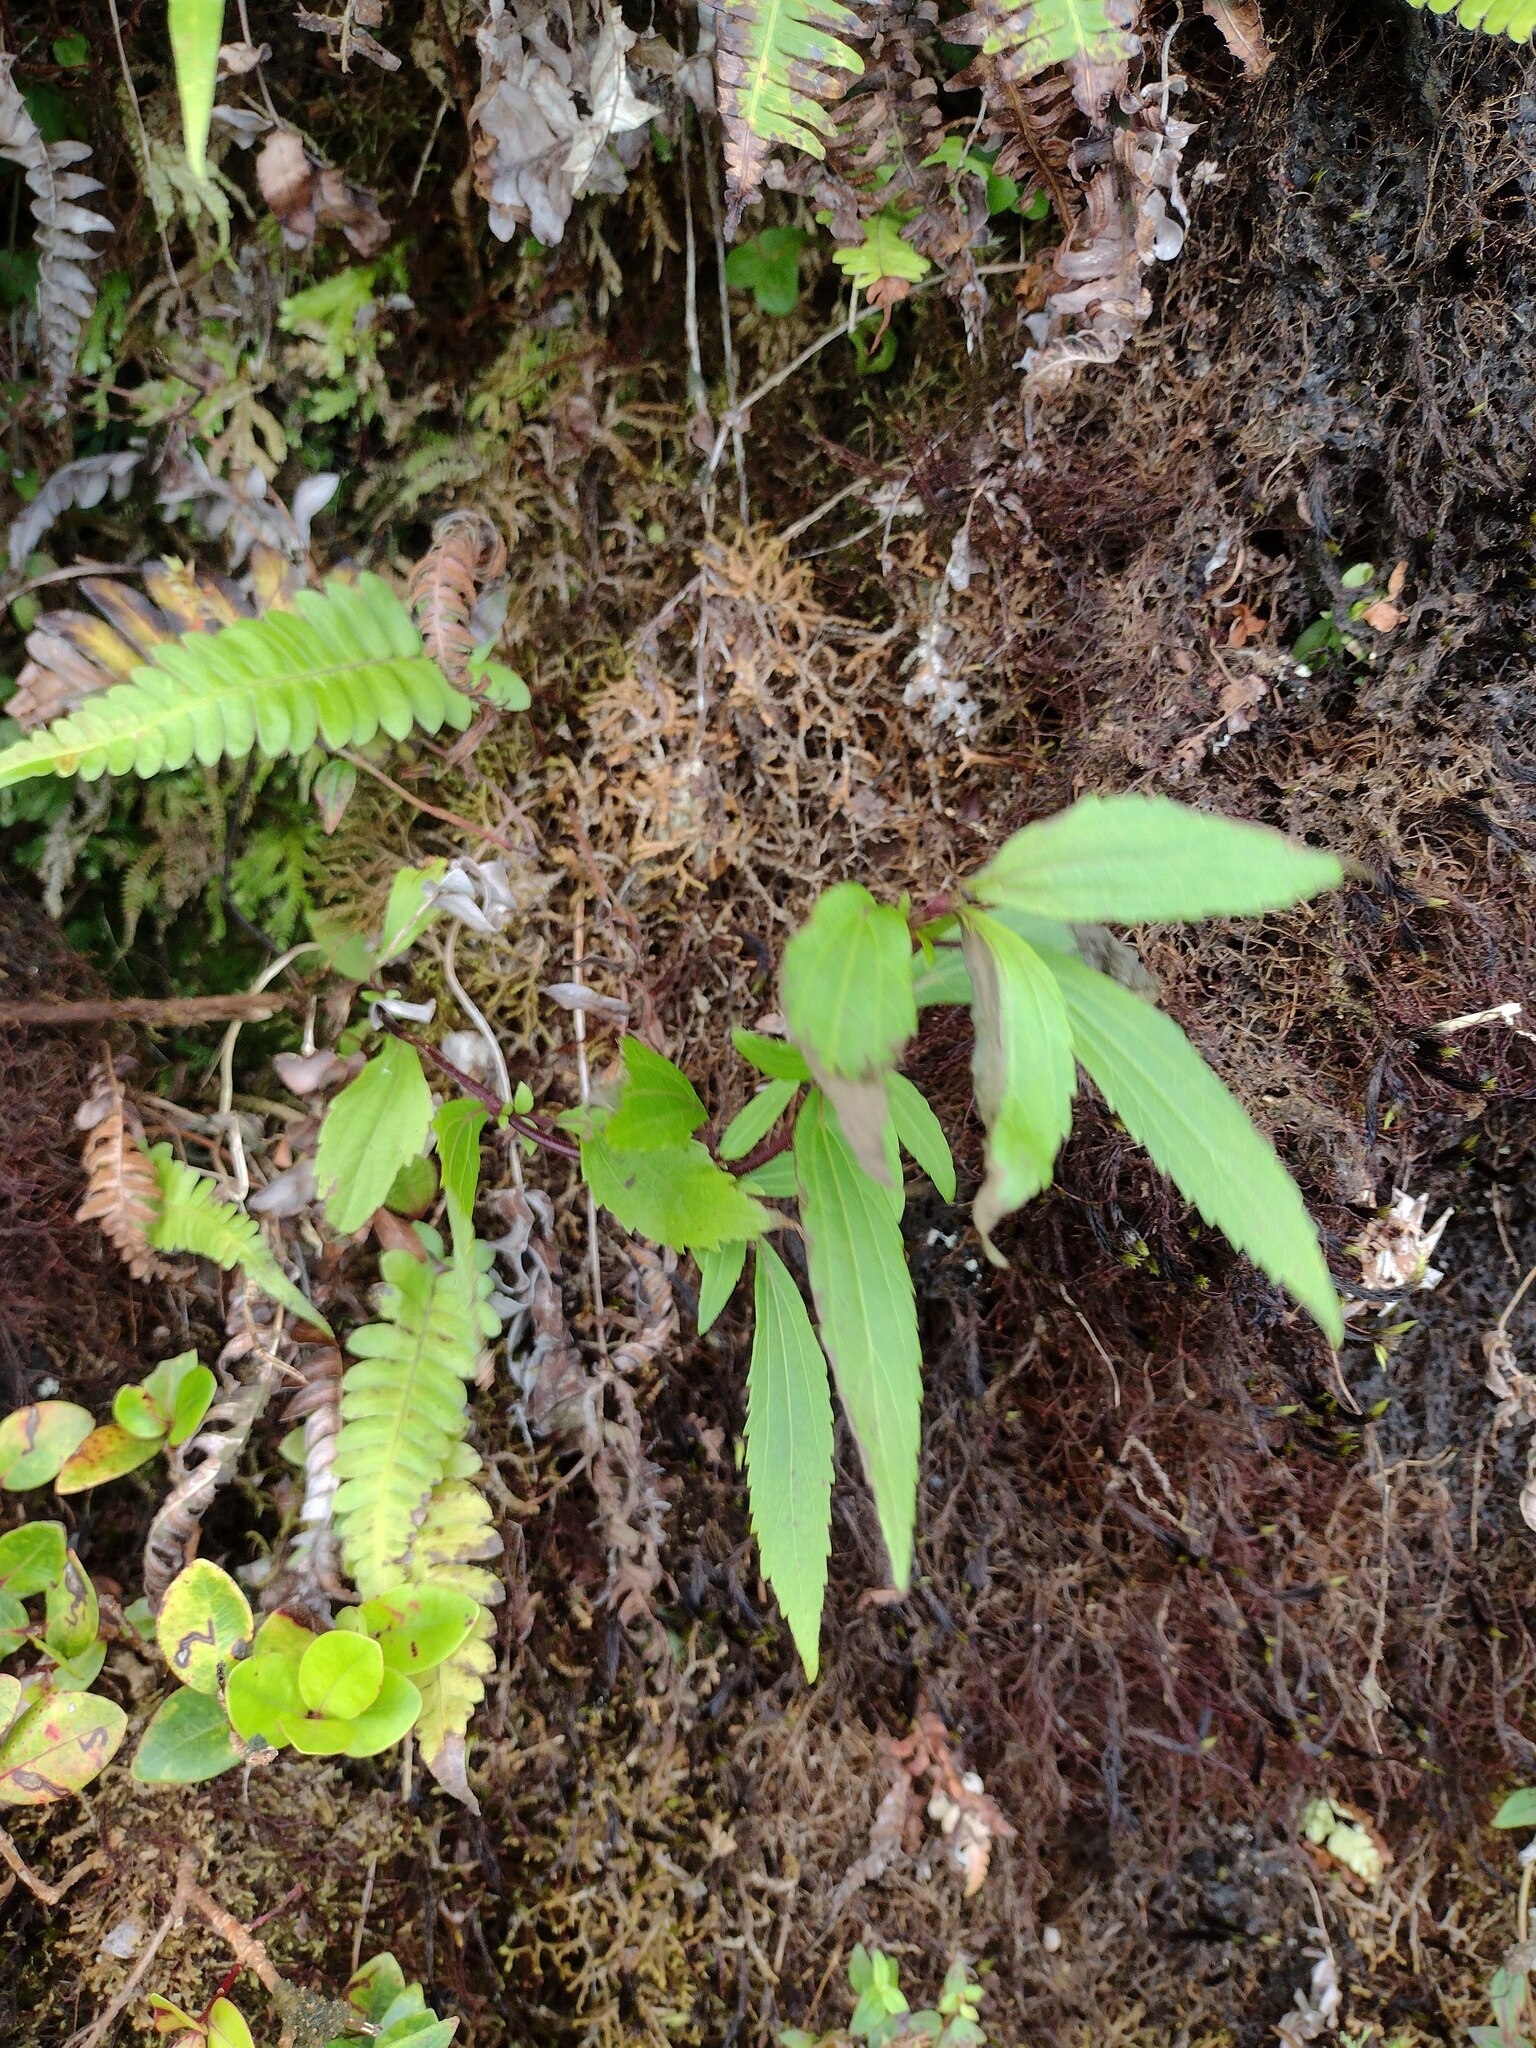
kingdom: Plantae
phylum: Tracheophyta
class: Magnoliopsida
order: Asterales
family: Asteraceae
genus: Ageratina
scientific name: Ageratina riparia
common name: Creeping croftonweed
